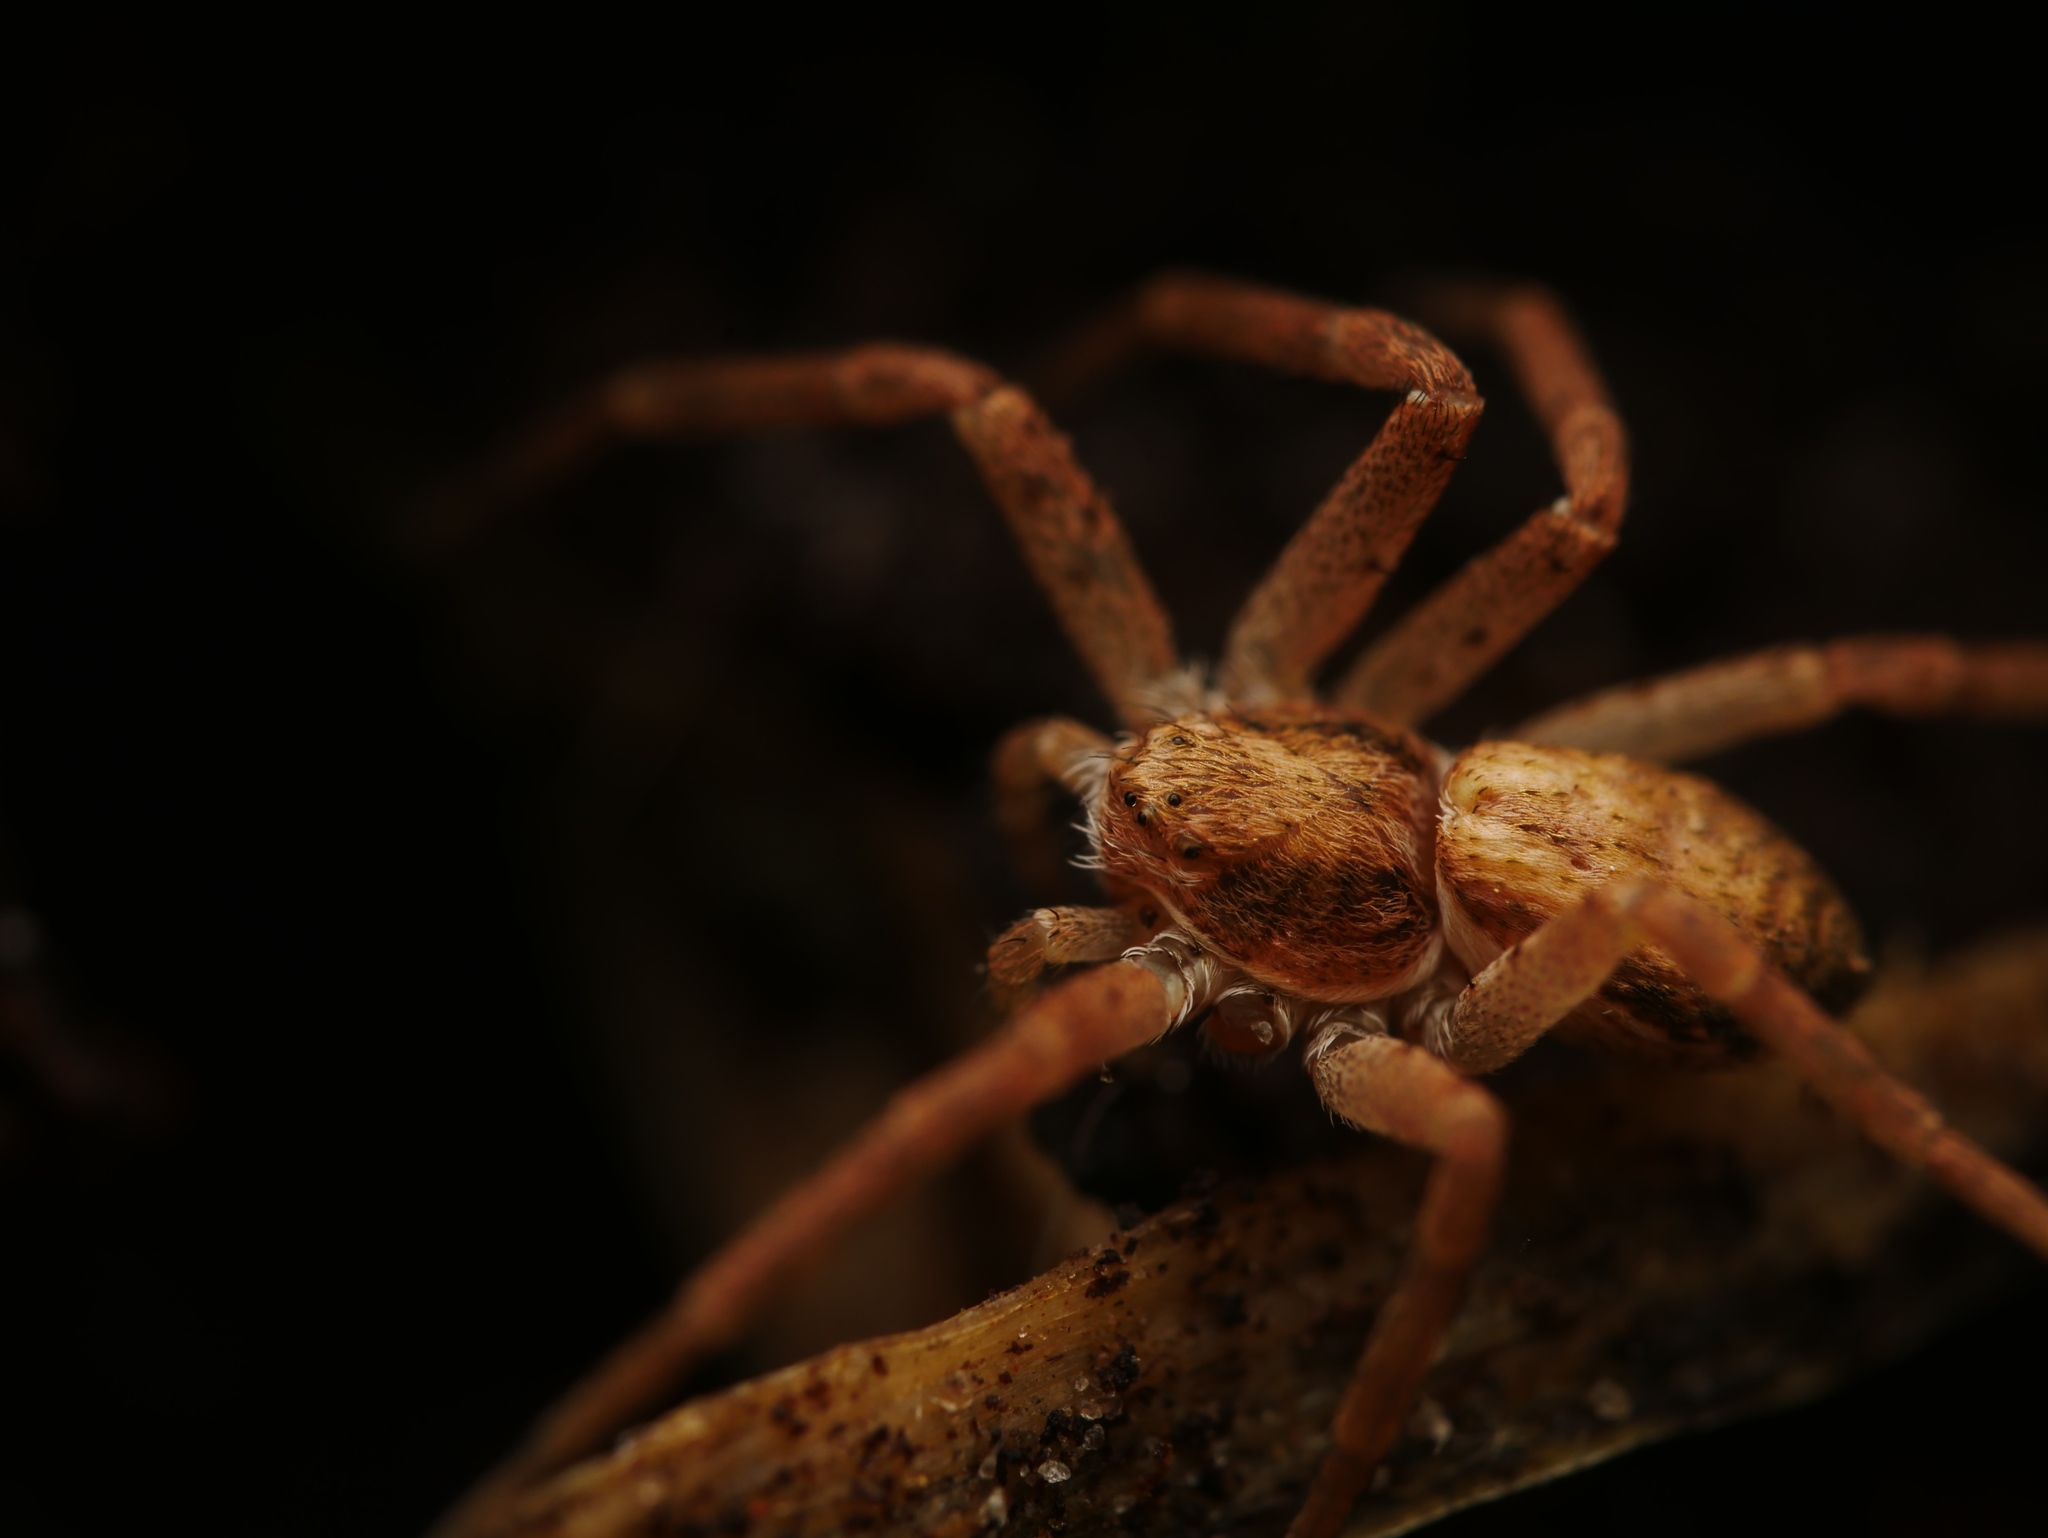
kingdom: Animalia
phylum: Arthropoda
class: Arachnida
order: Araneae
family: Philodromidae
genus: Philodromus
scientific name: Philodromus dispar
